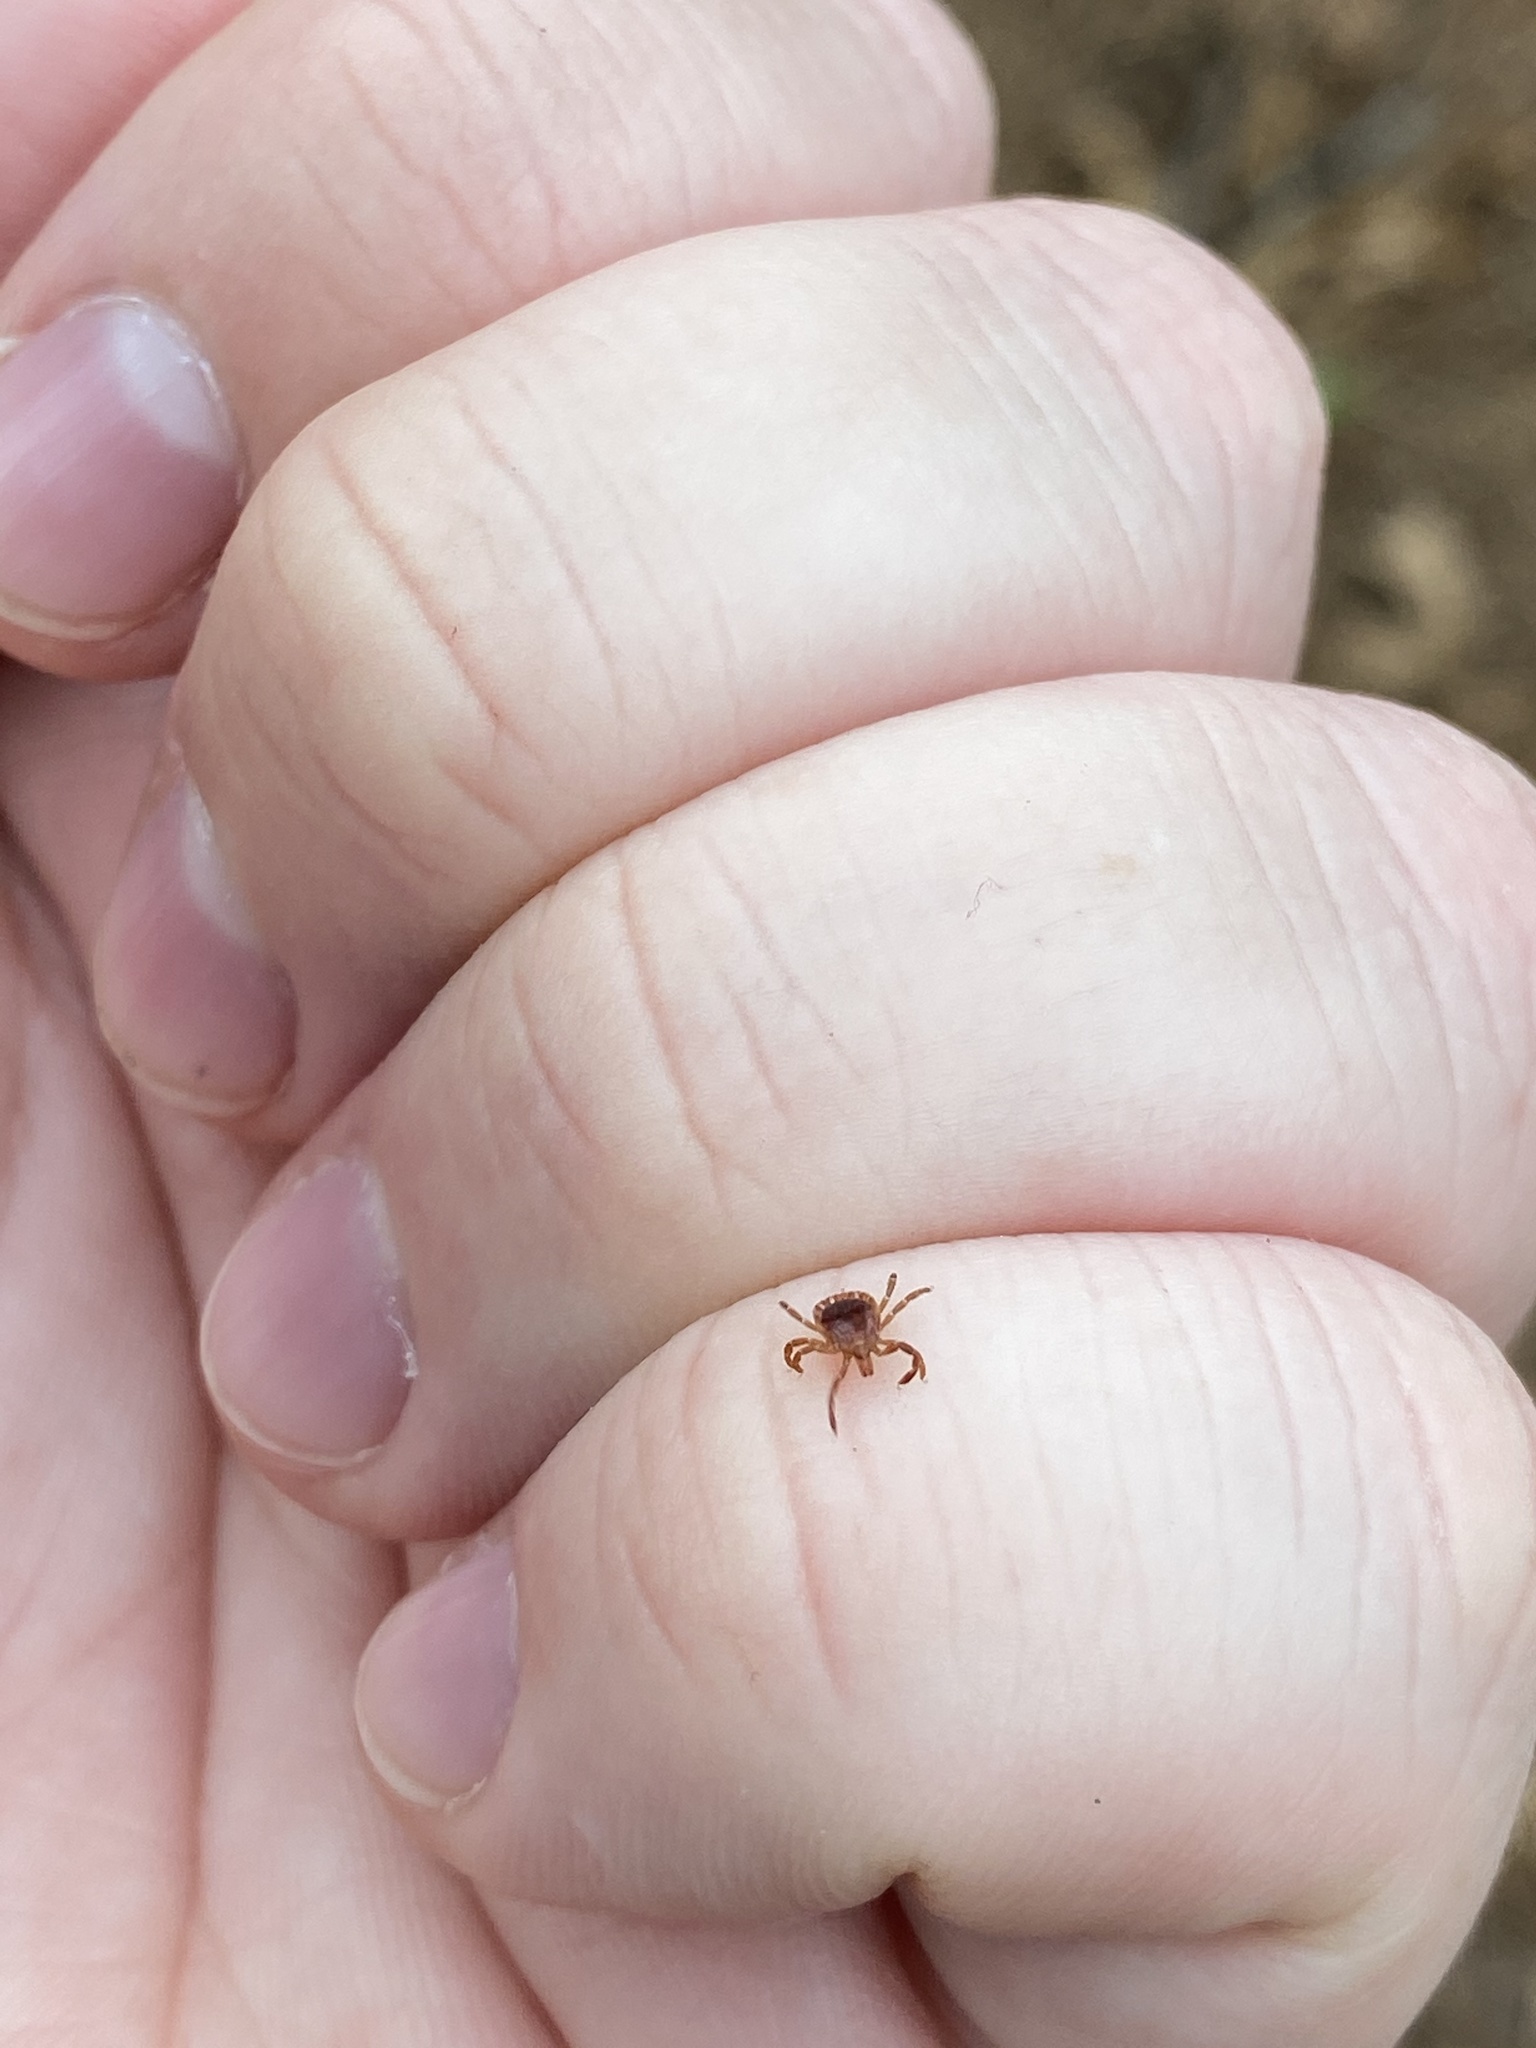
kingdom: Animalia
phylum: Arthropoda
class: Arachnida
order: Ixodida
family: Ixodidae
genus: Amblyomma
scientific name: Amblyomma americanum
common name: Lone star tick
